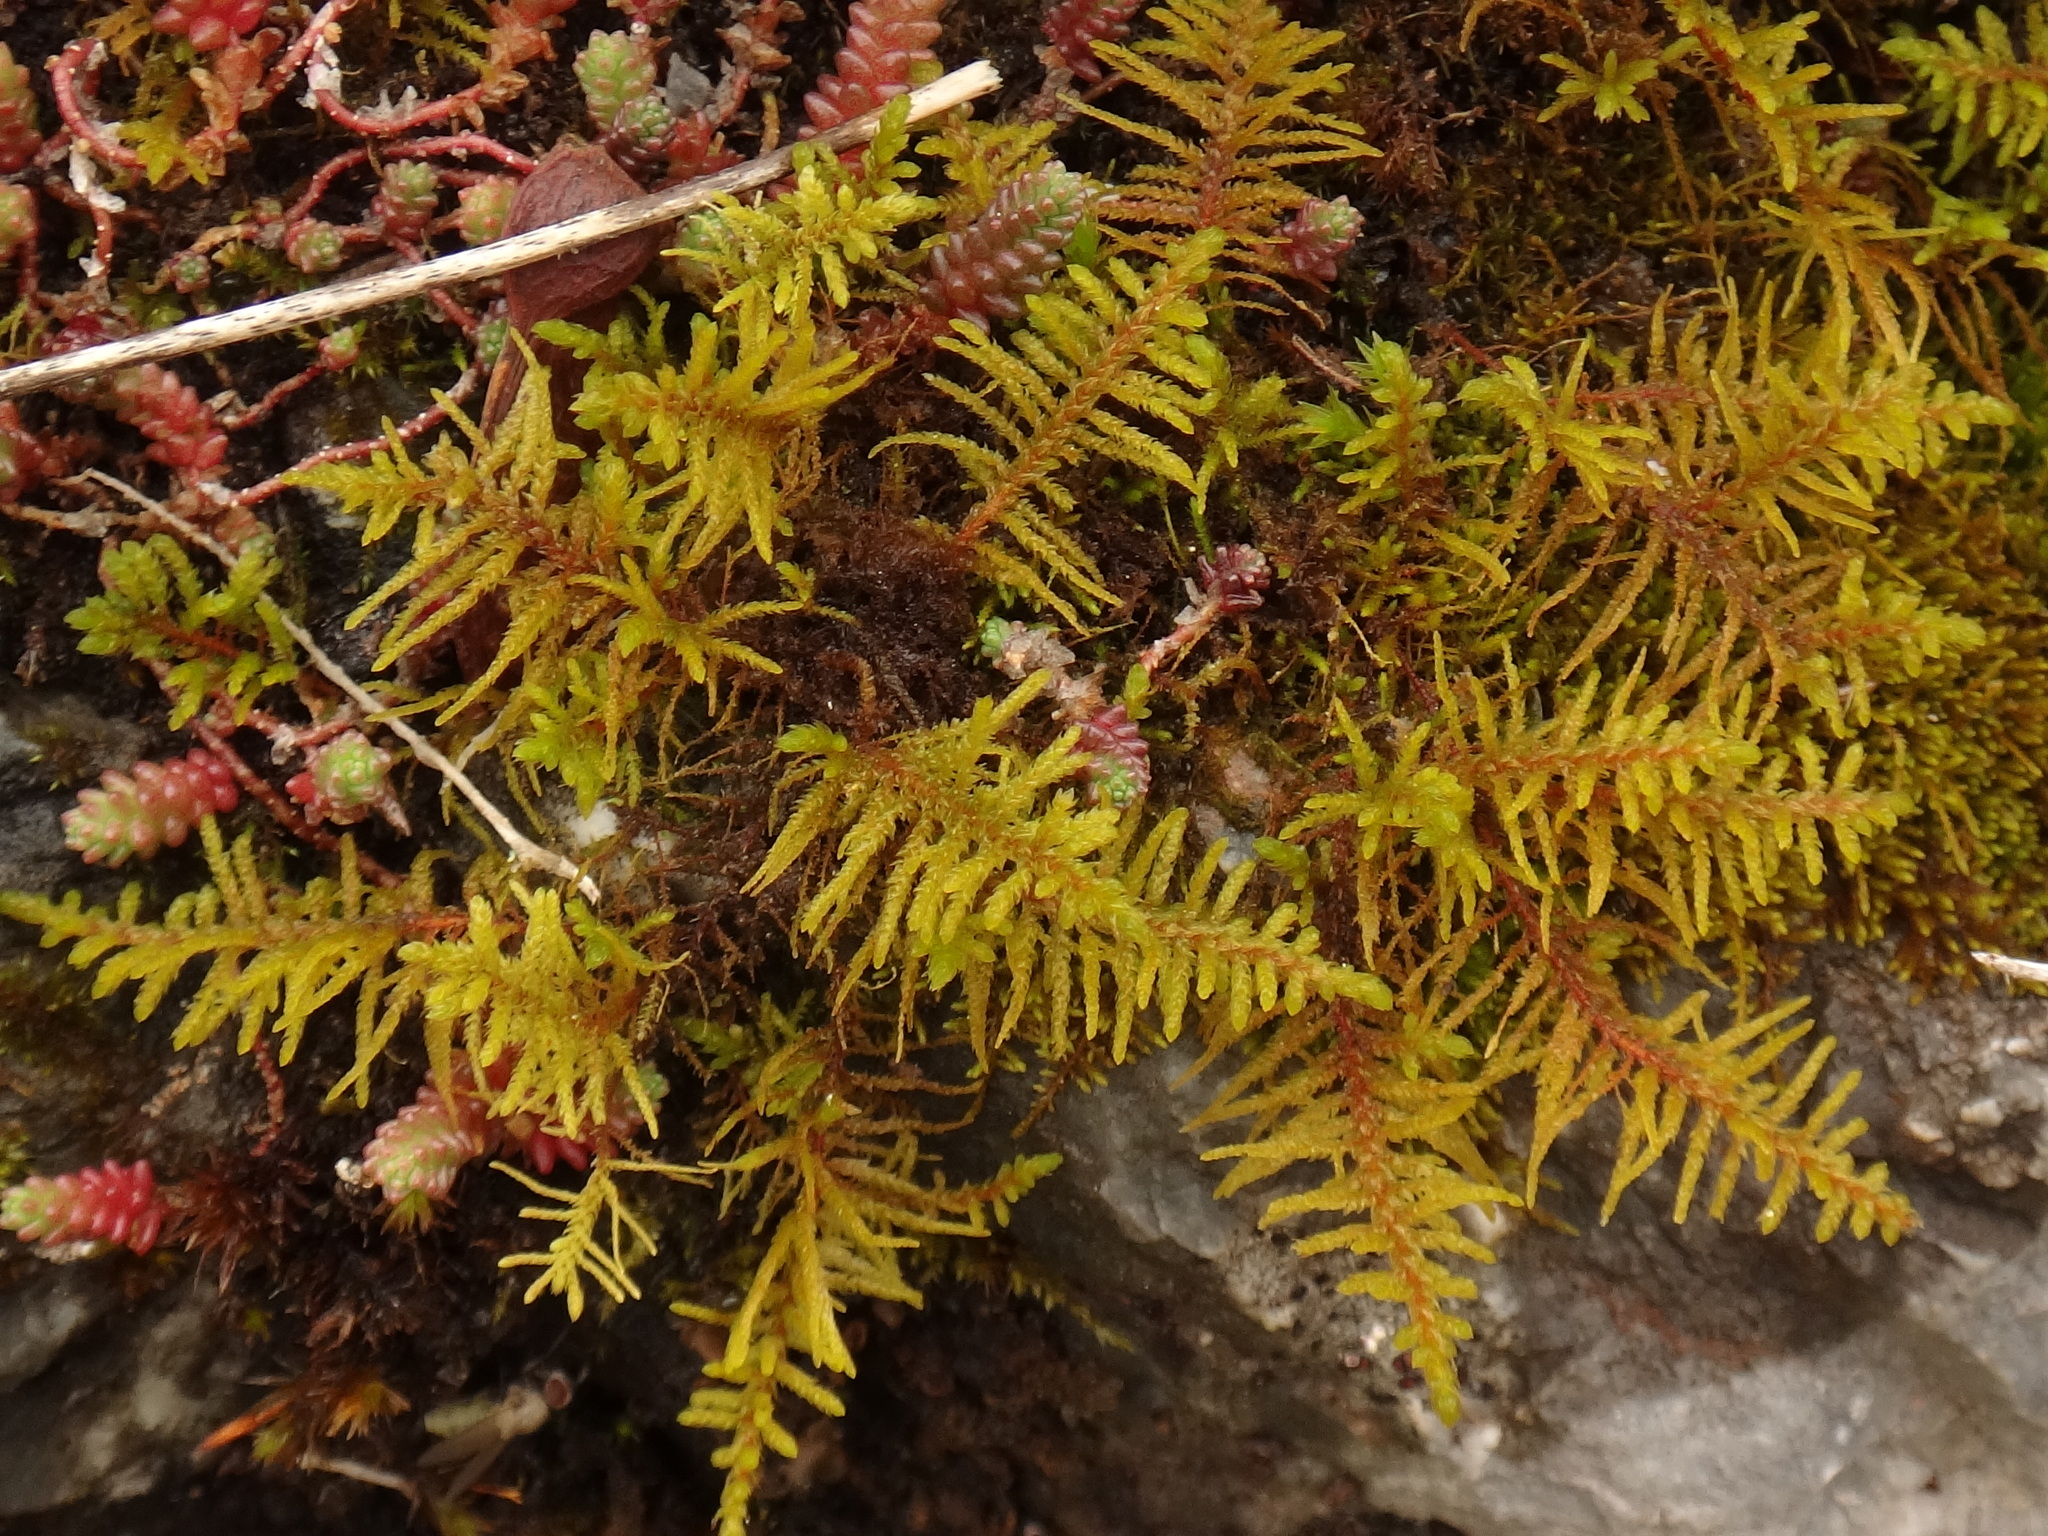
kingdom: Plantae
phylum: Bryophyta
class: Bryopsida
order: Hypnales
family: Thuidiaceae
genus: Abietinella
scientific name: Abietinella abietina
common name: Wiry fern moss
